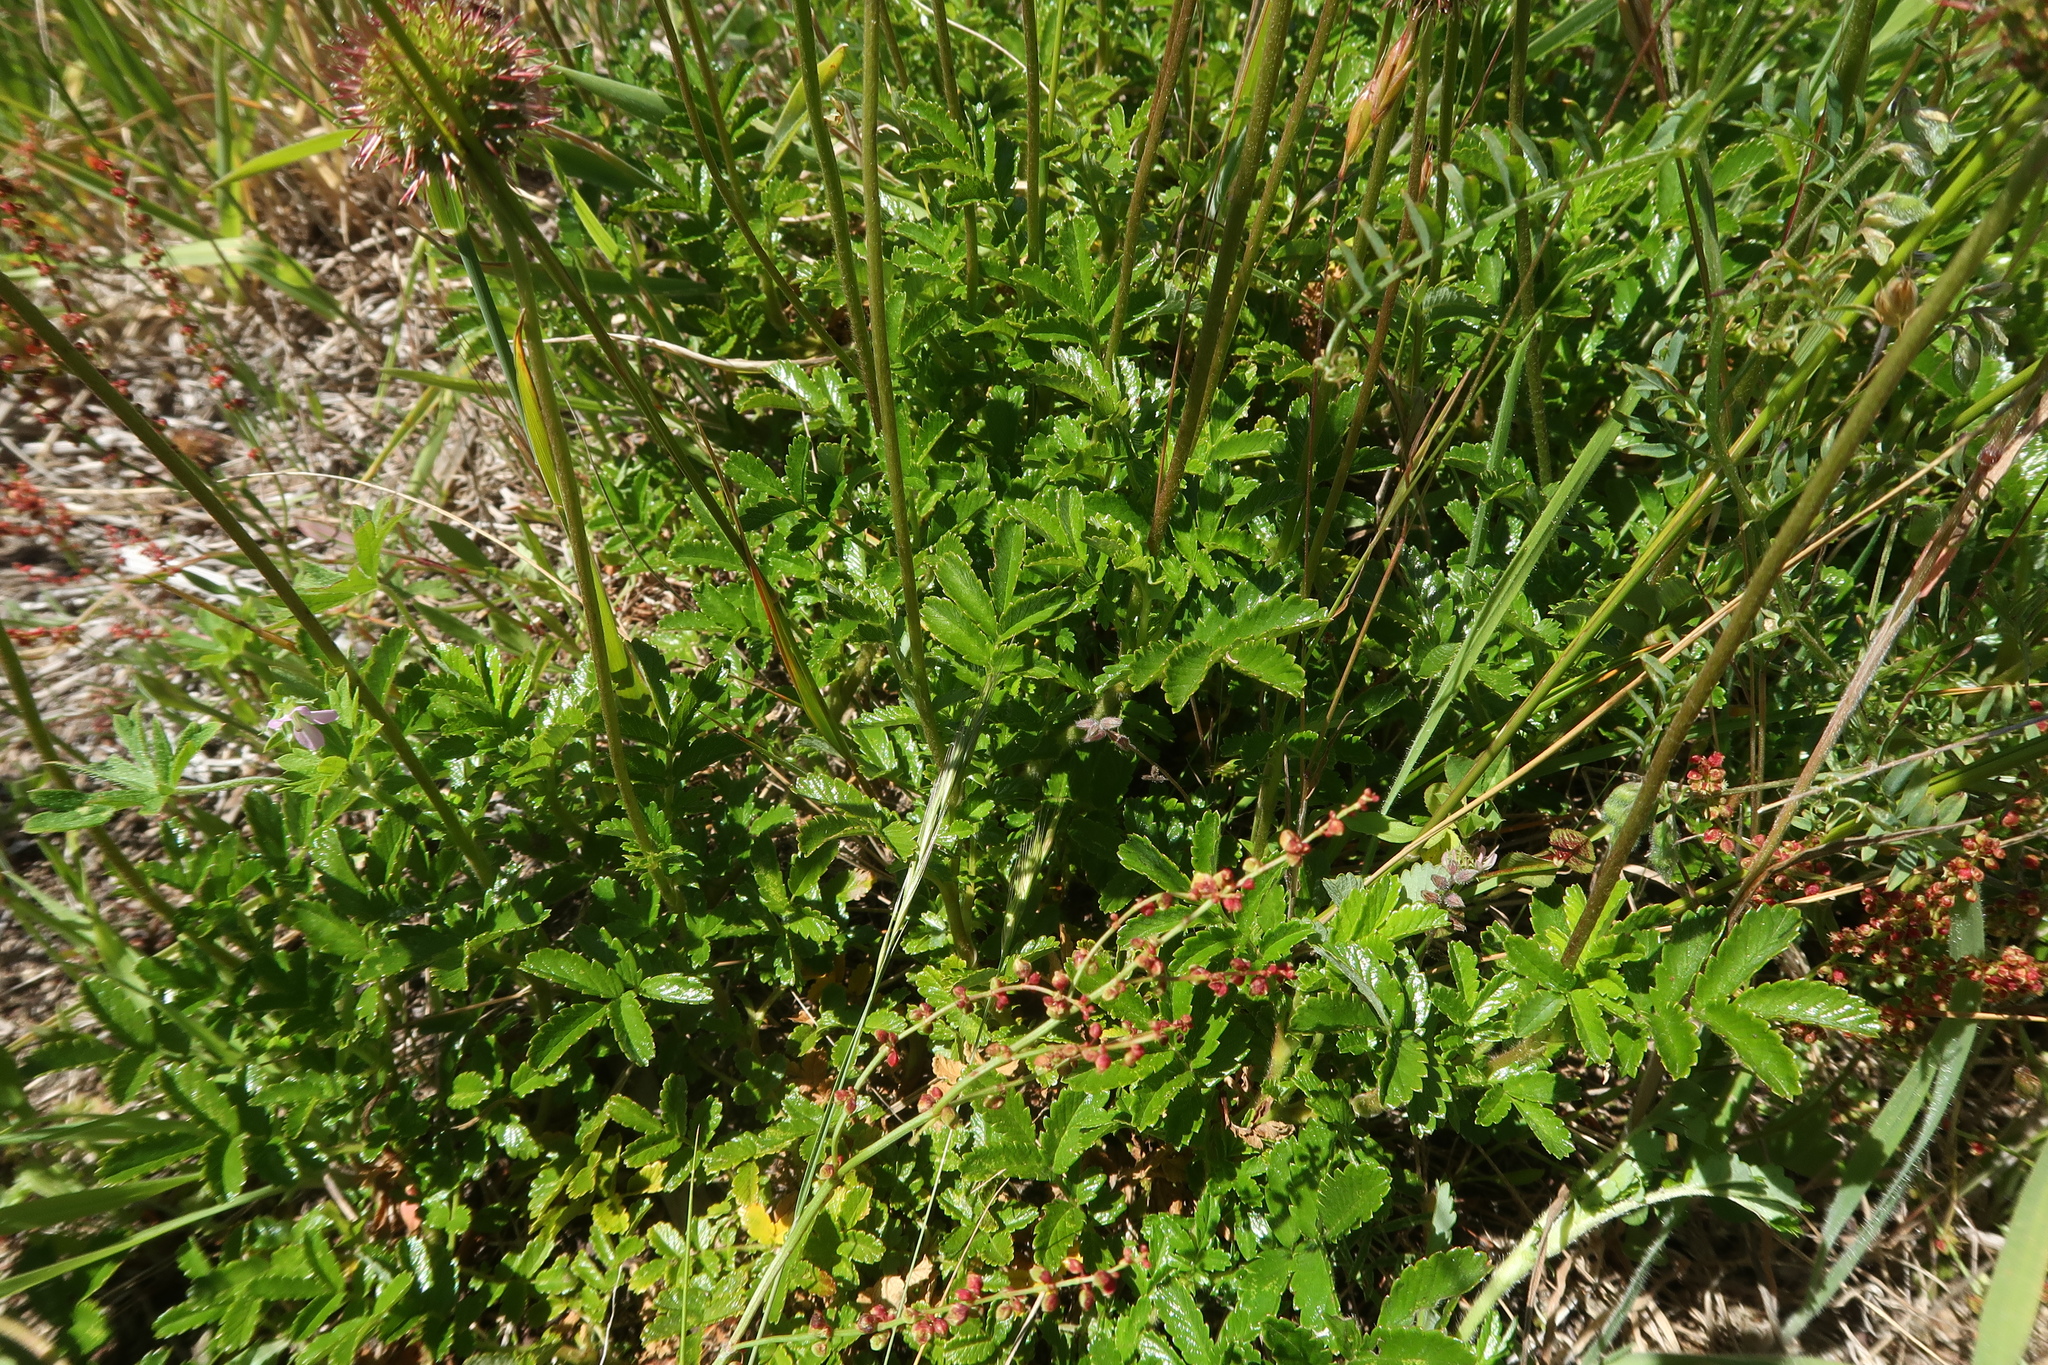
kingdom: Plantae
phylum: Tracheophyta
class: Magnoliopsida
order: Rosales
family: Rosaceae
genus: Acaena
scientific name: Acaena novae-zelandiae
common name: Pirri-pirri-bur
